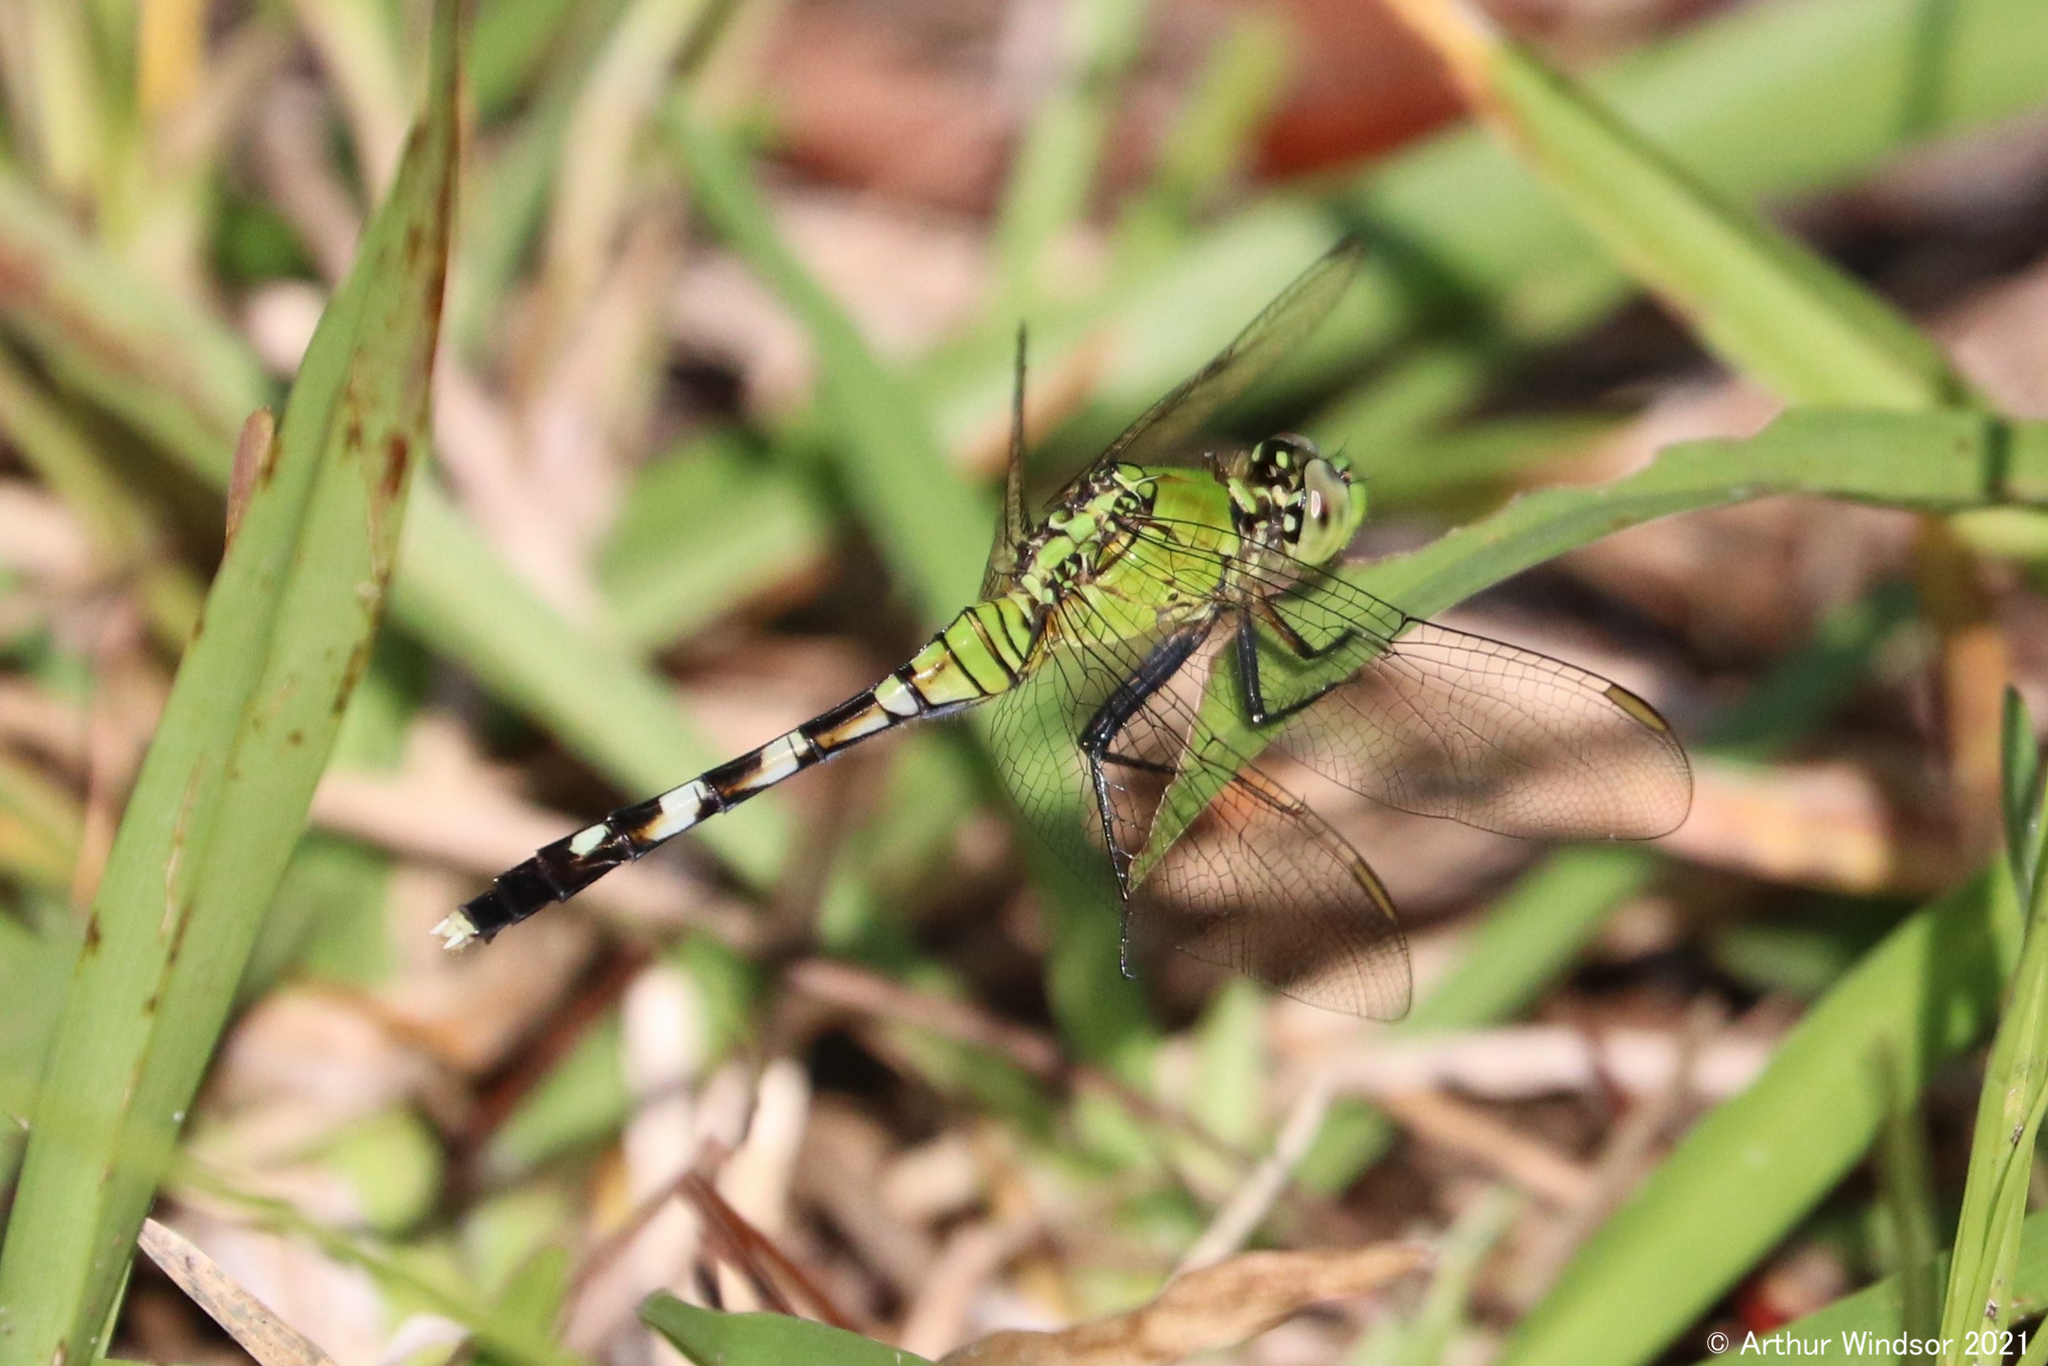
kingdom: Animalia
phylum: Arthropoda
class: Insecta
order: Odonata
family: Libellulidae
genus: Erythemis
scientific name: Erythemis simplicicollis
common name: Eastern pondhawk
